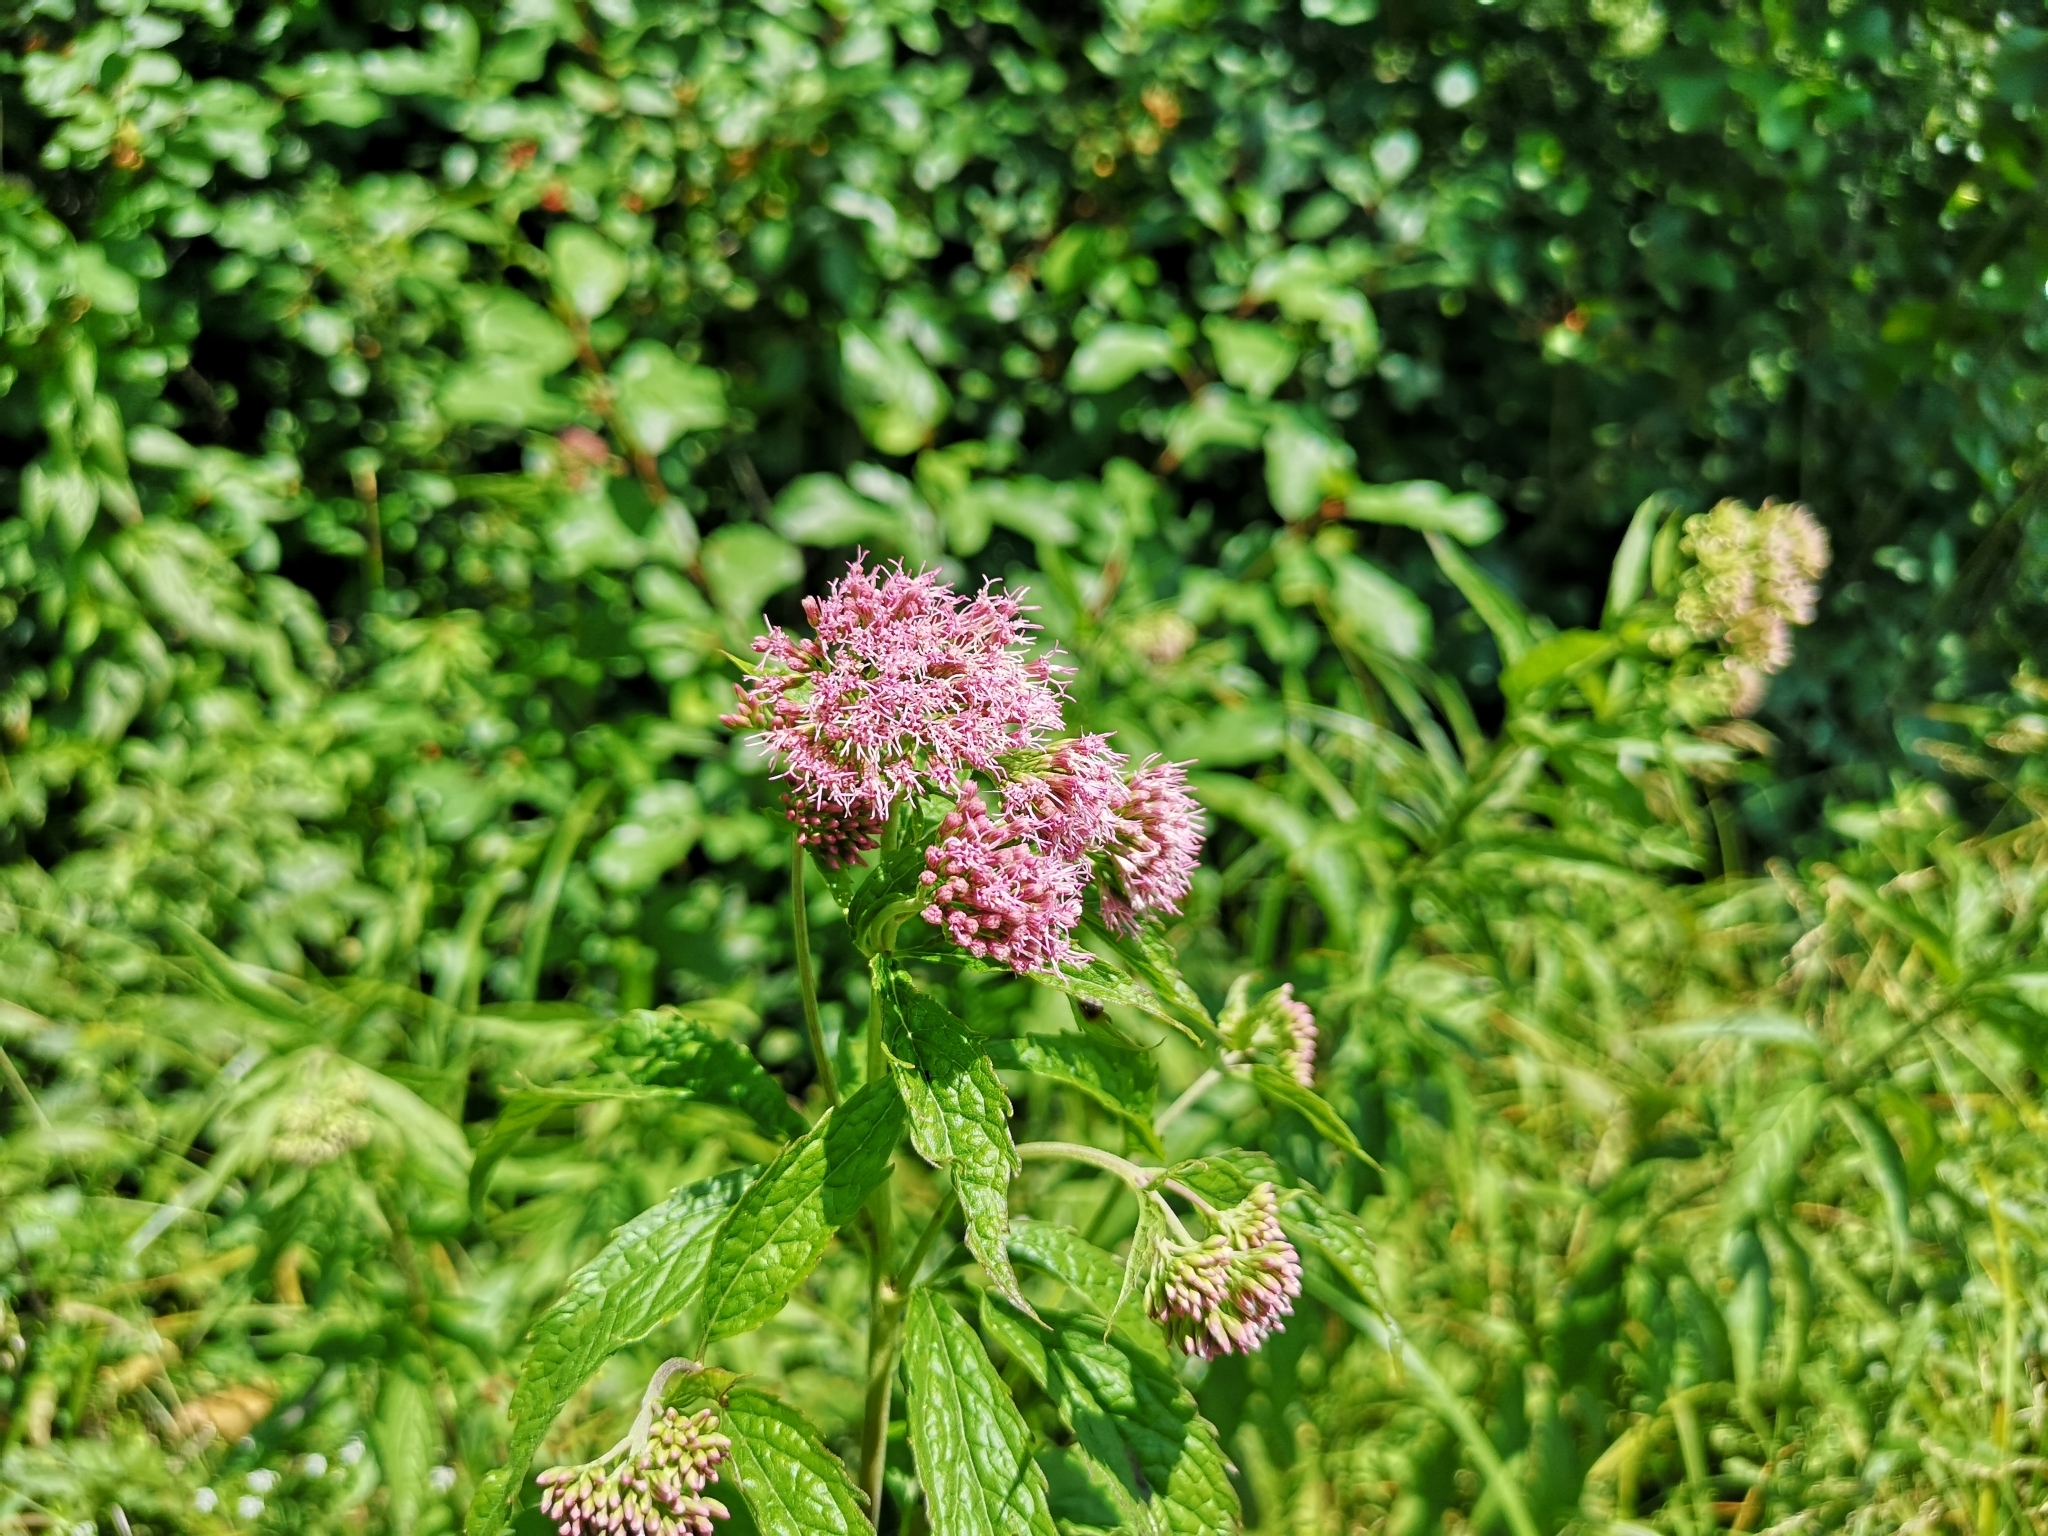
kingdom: Plantae
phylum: Tracheophyta
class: Magnoliopsida
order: Asterales
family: Asteraceae
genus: Eupatorium
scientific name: Eupatorium cannabinum
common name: Hemp-agrimony
